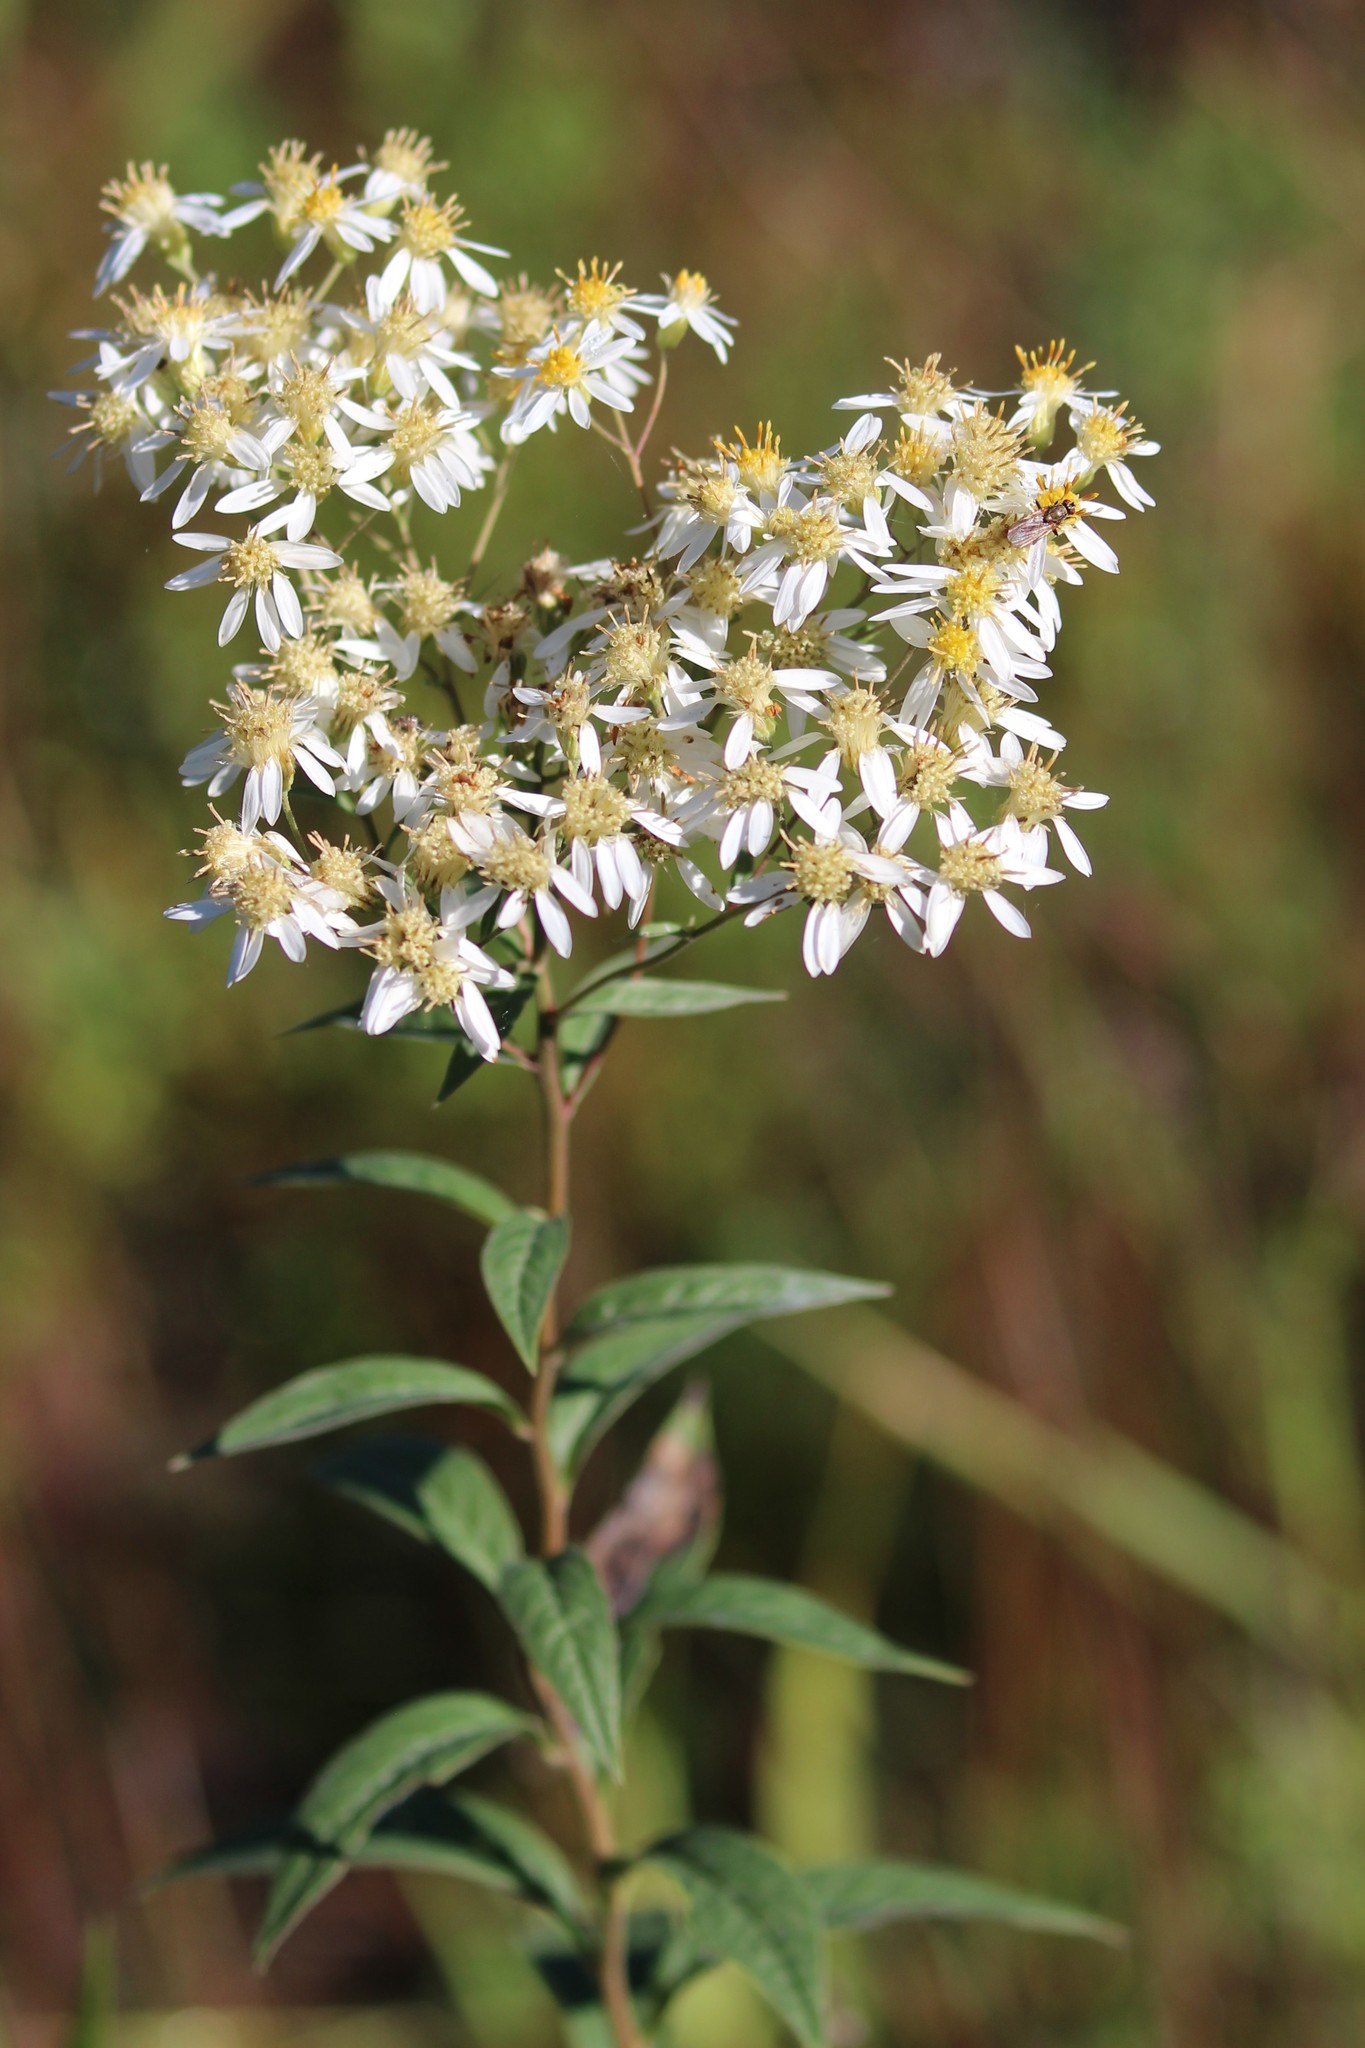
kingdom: Plantae
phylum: Tracheophyta
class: Magnoliopsida
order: Asterales
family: Asteraceae
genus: Doellingeria
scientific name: Doellingeria umbellata
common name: Flat-top white aster
